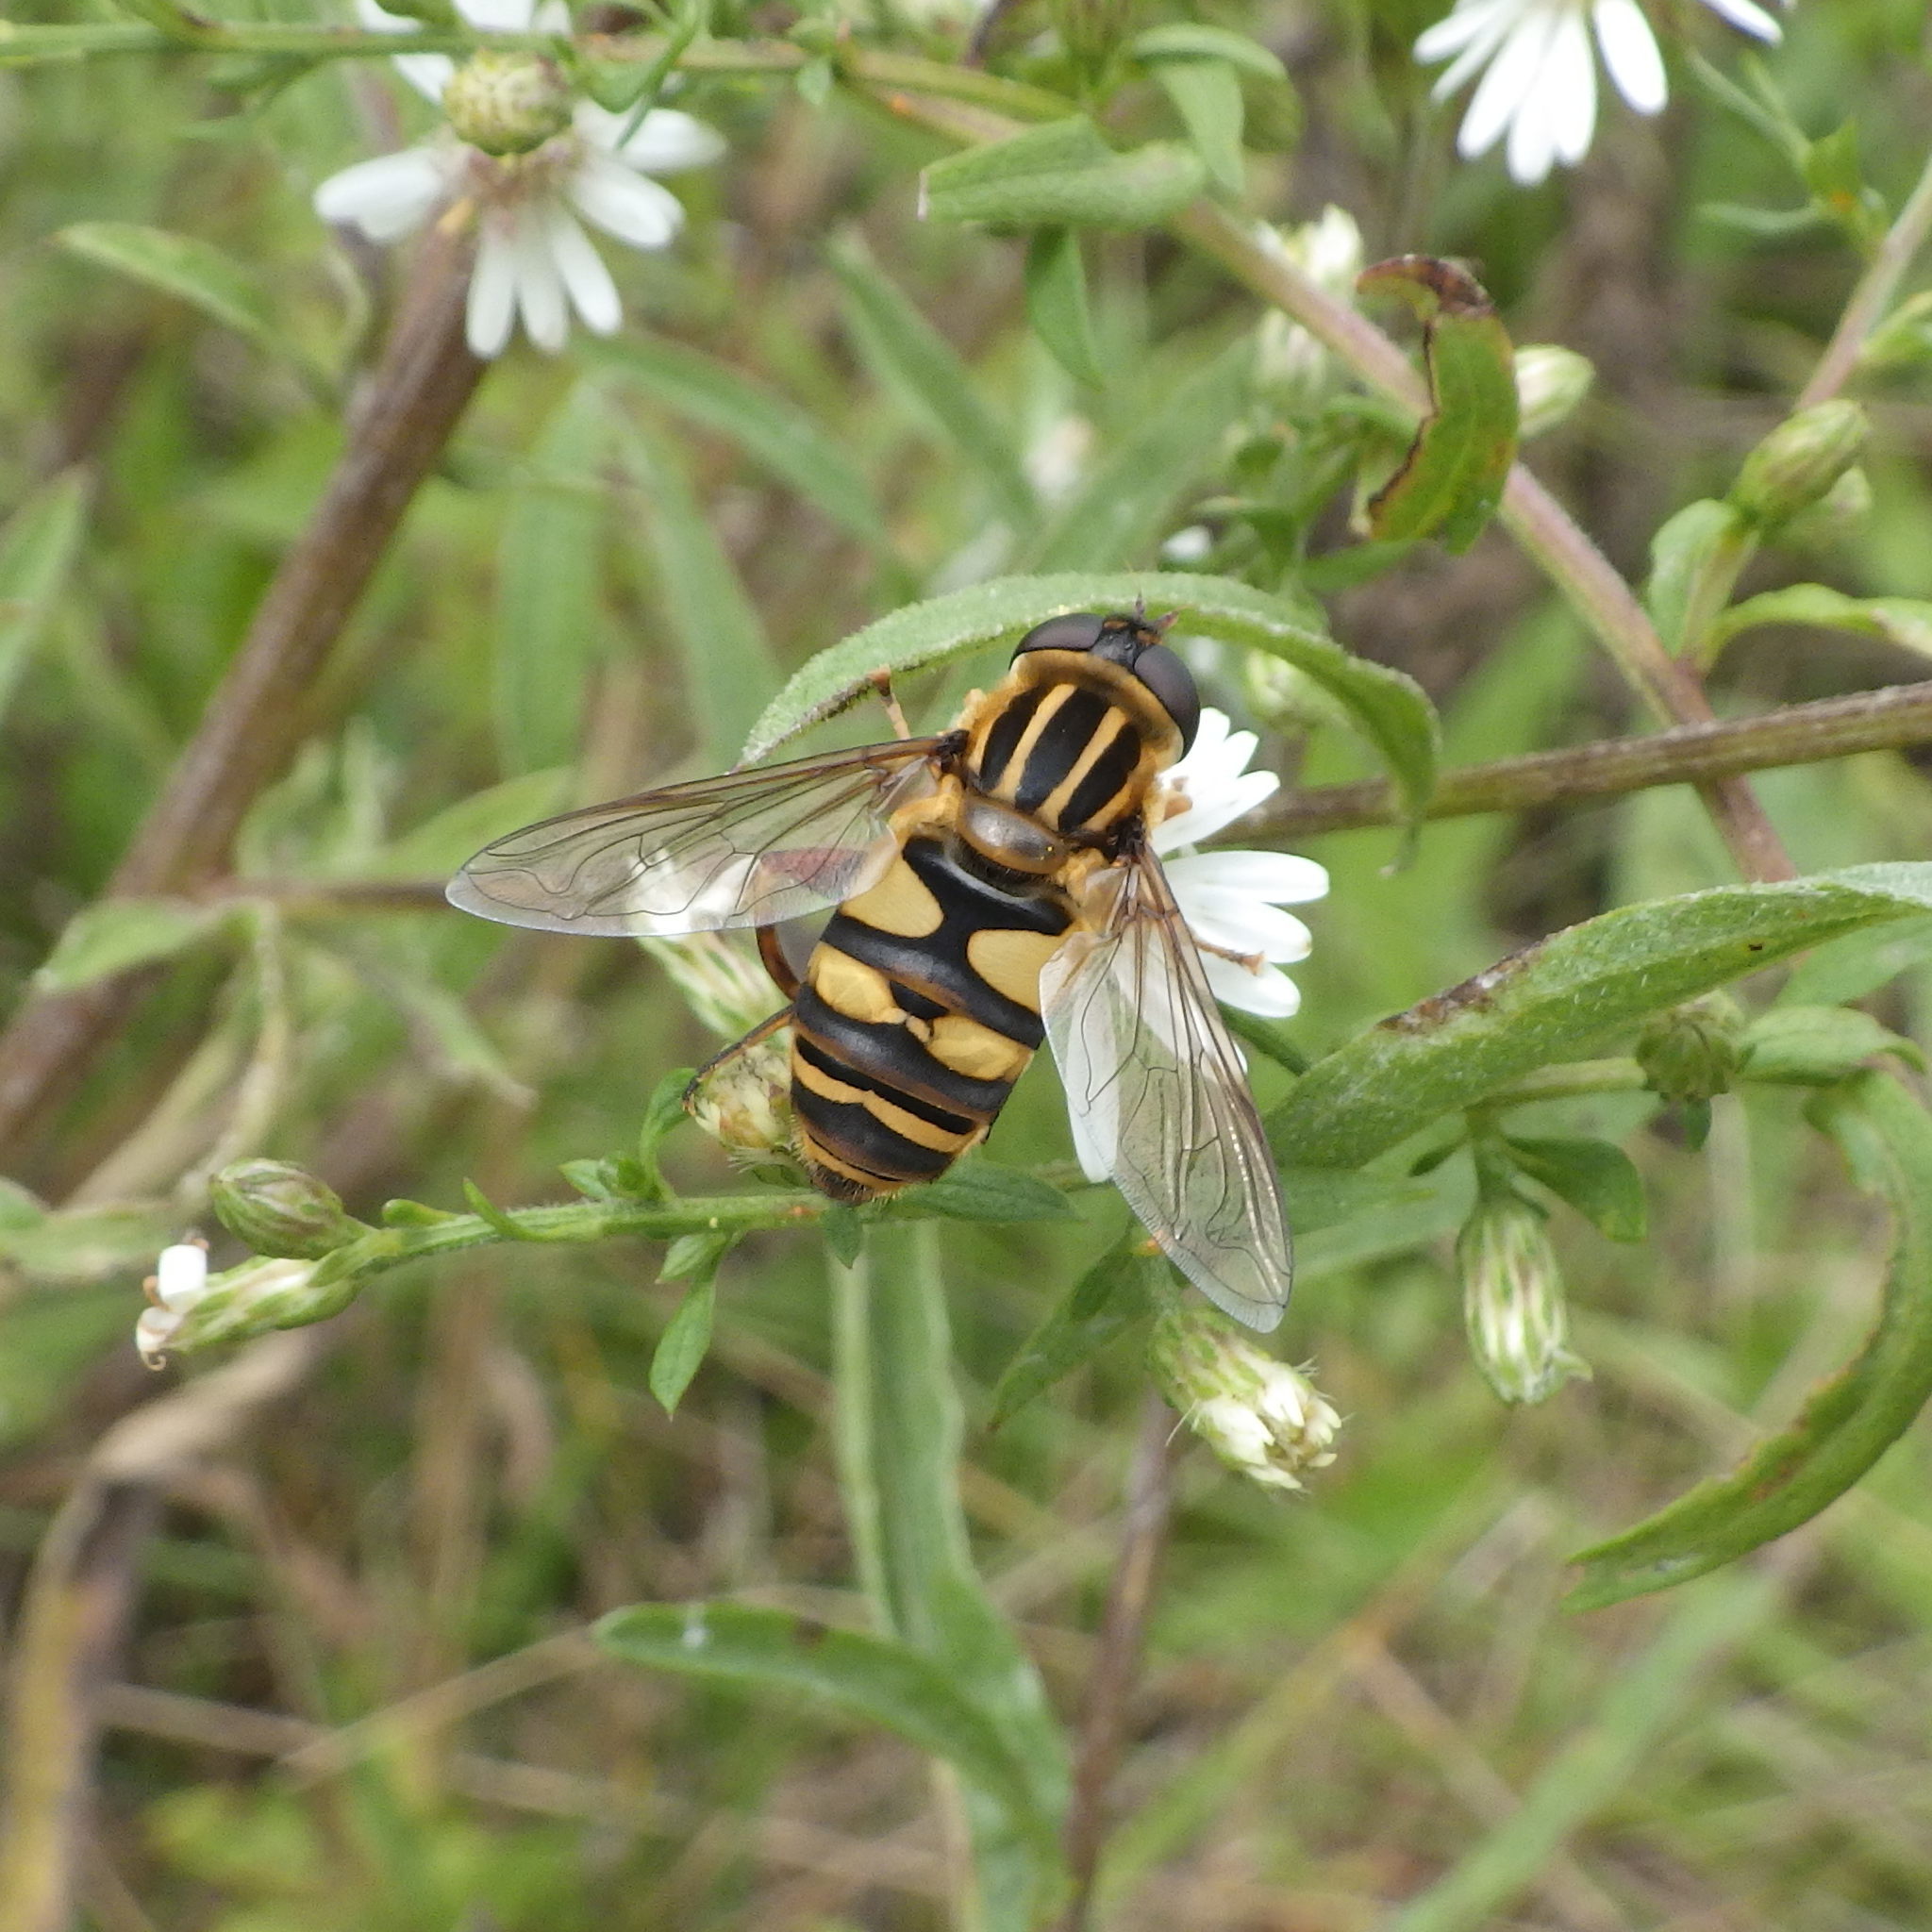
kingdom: Animalia
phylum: Arthropoda
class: Insecta
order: Diptera
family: Syrphidae
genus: Helophilus
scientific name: Helophilus fasciatus
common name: Narrow-headed marsh fly
